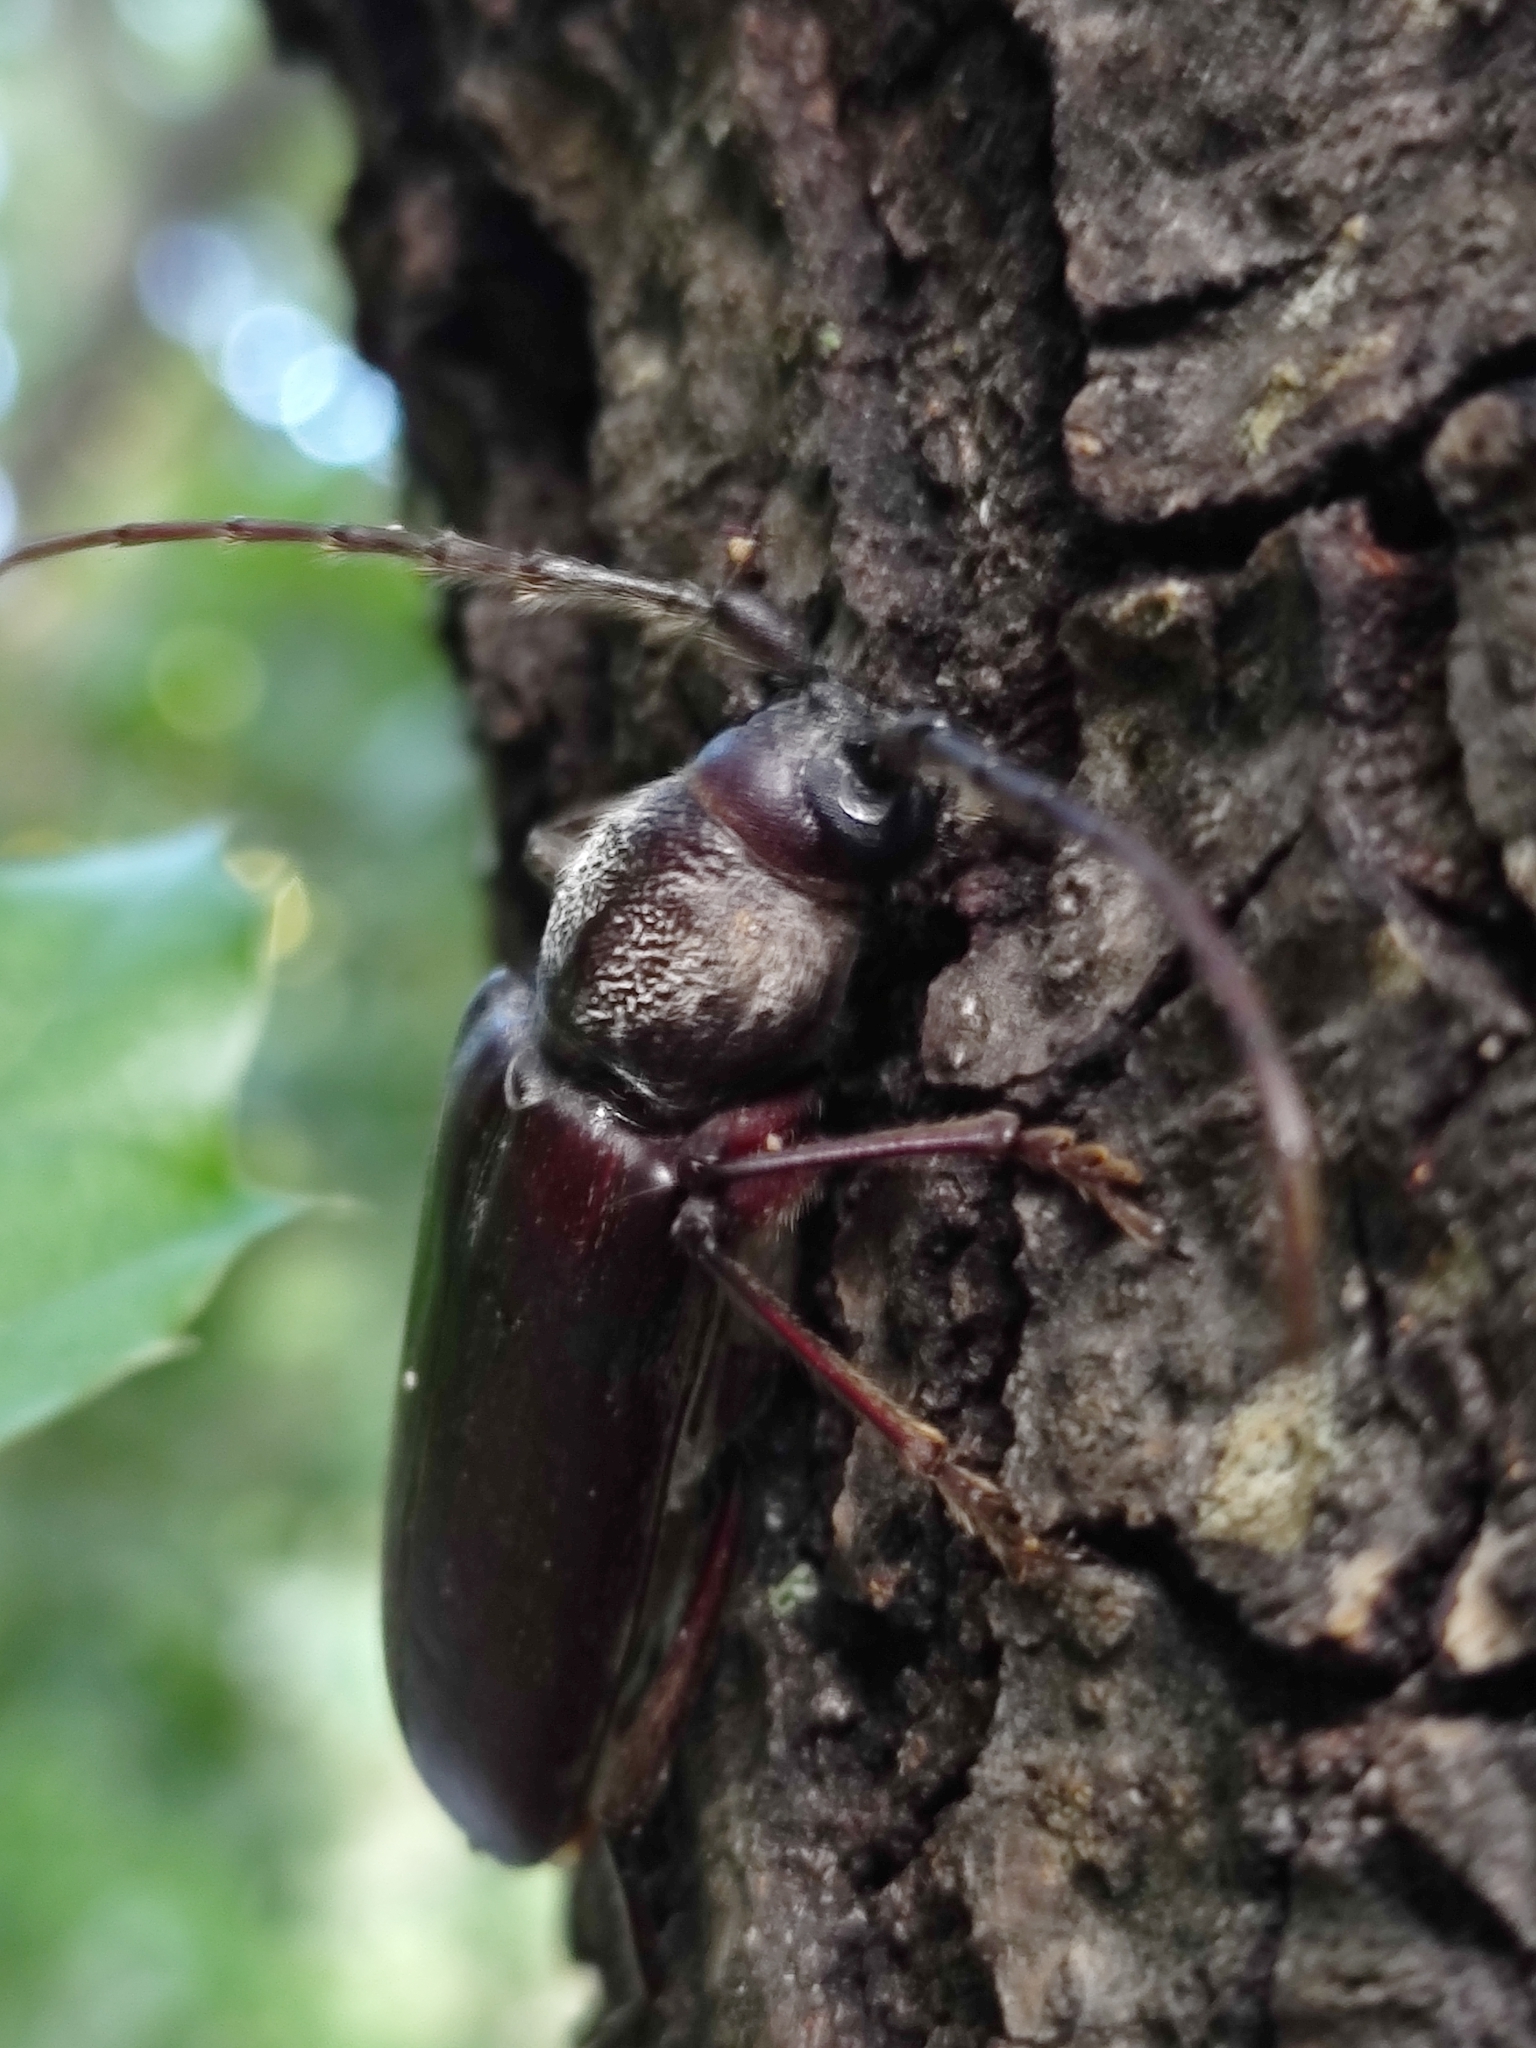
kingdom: Animalia
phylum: Arthropoda
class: Insecta
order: Coleoptera
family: Cerambycidae
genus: Eustromula
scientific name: Eustromula validum
